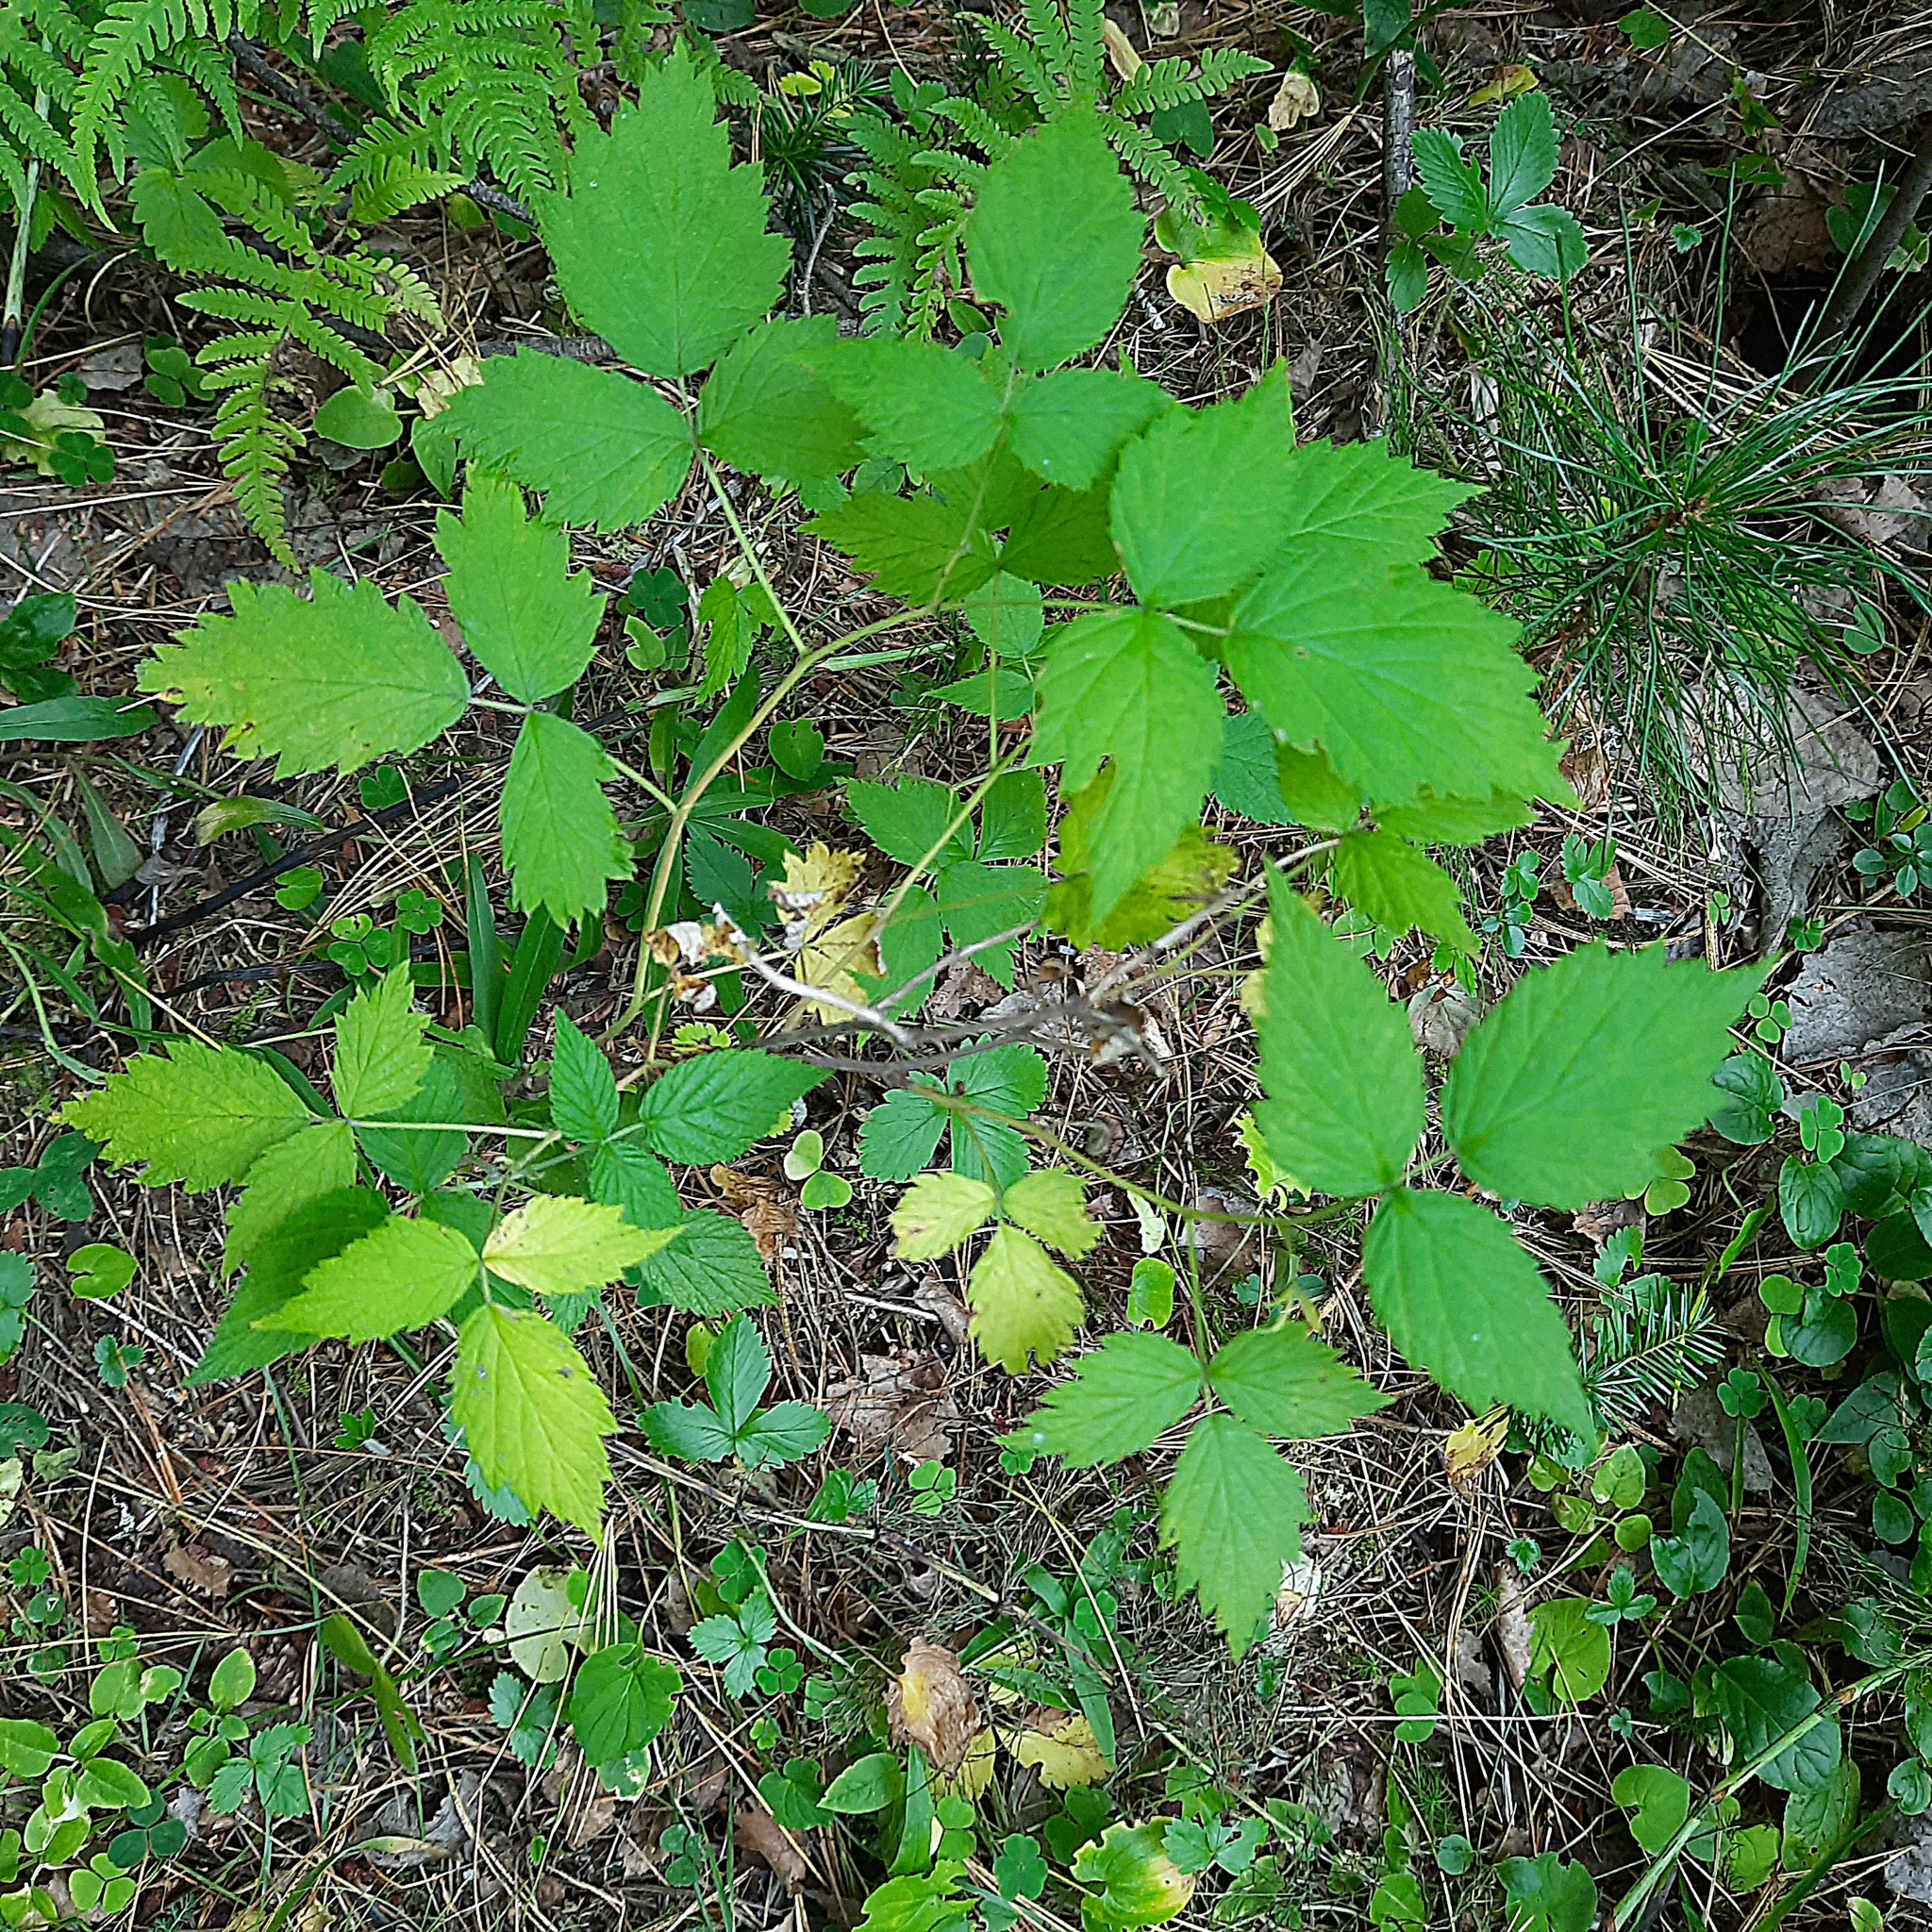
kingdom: Plantae
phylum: Tracheophyta
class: Magnoliopsida
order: Rosales
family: Rosaceae
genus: Rubus
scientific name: Rubus idaeus
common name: Raspberry
